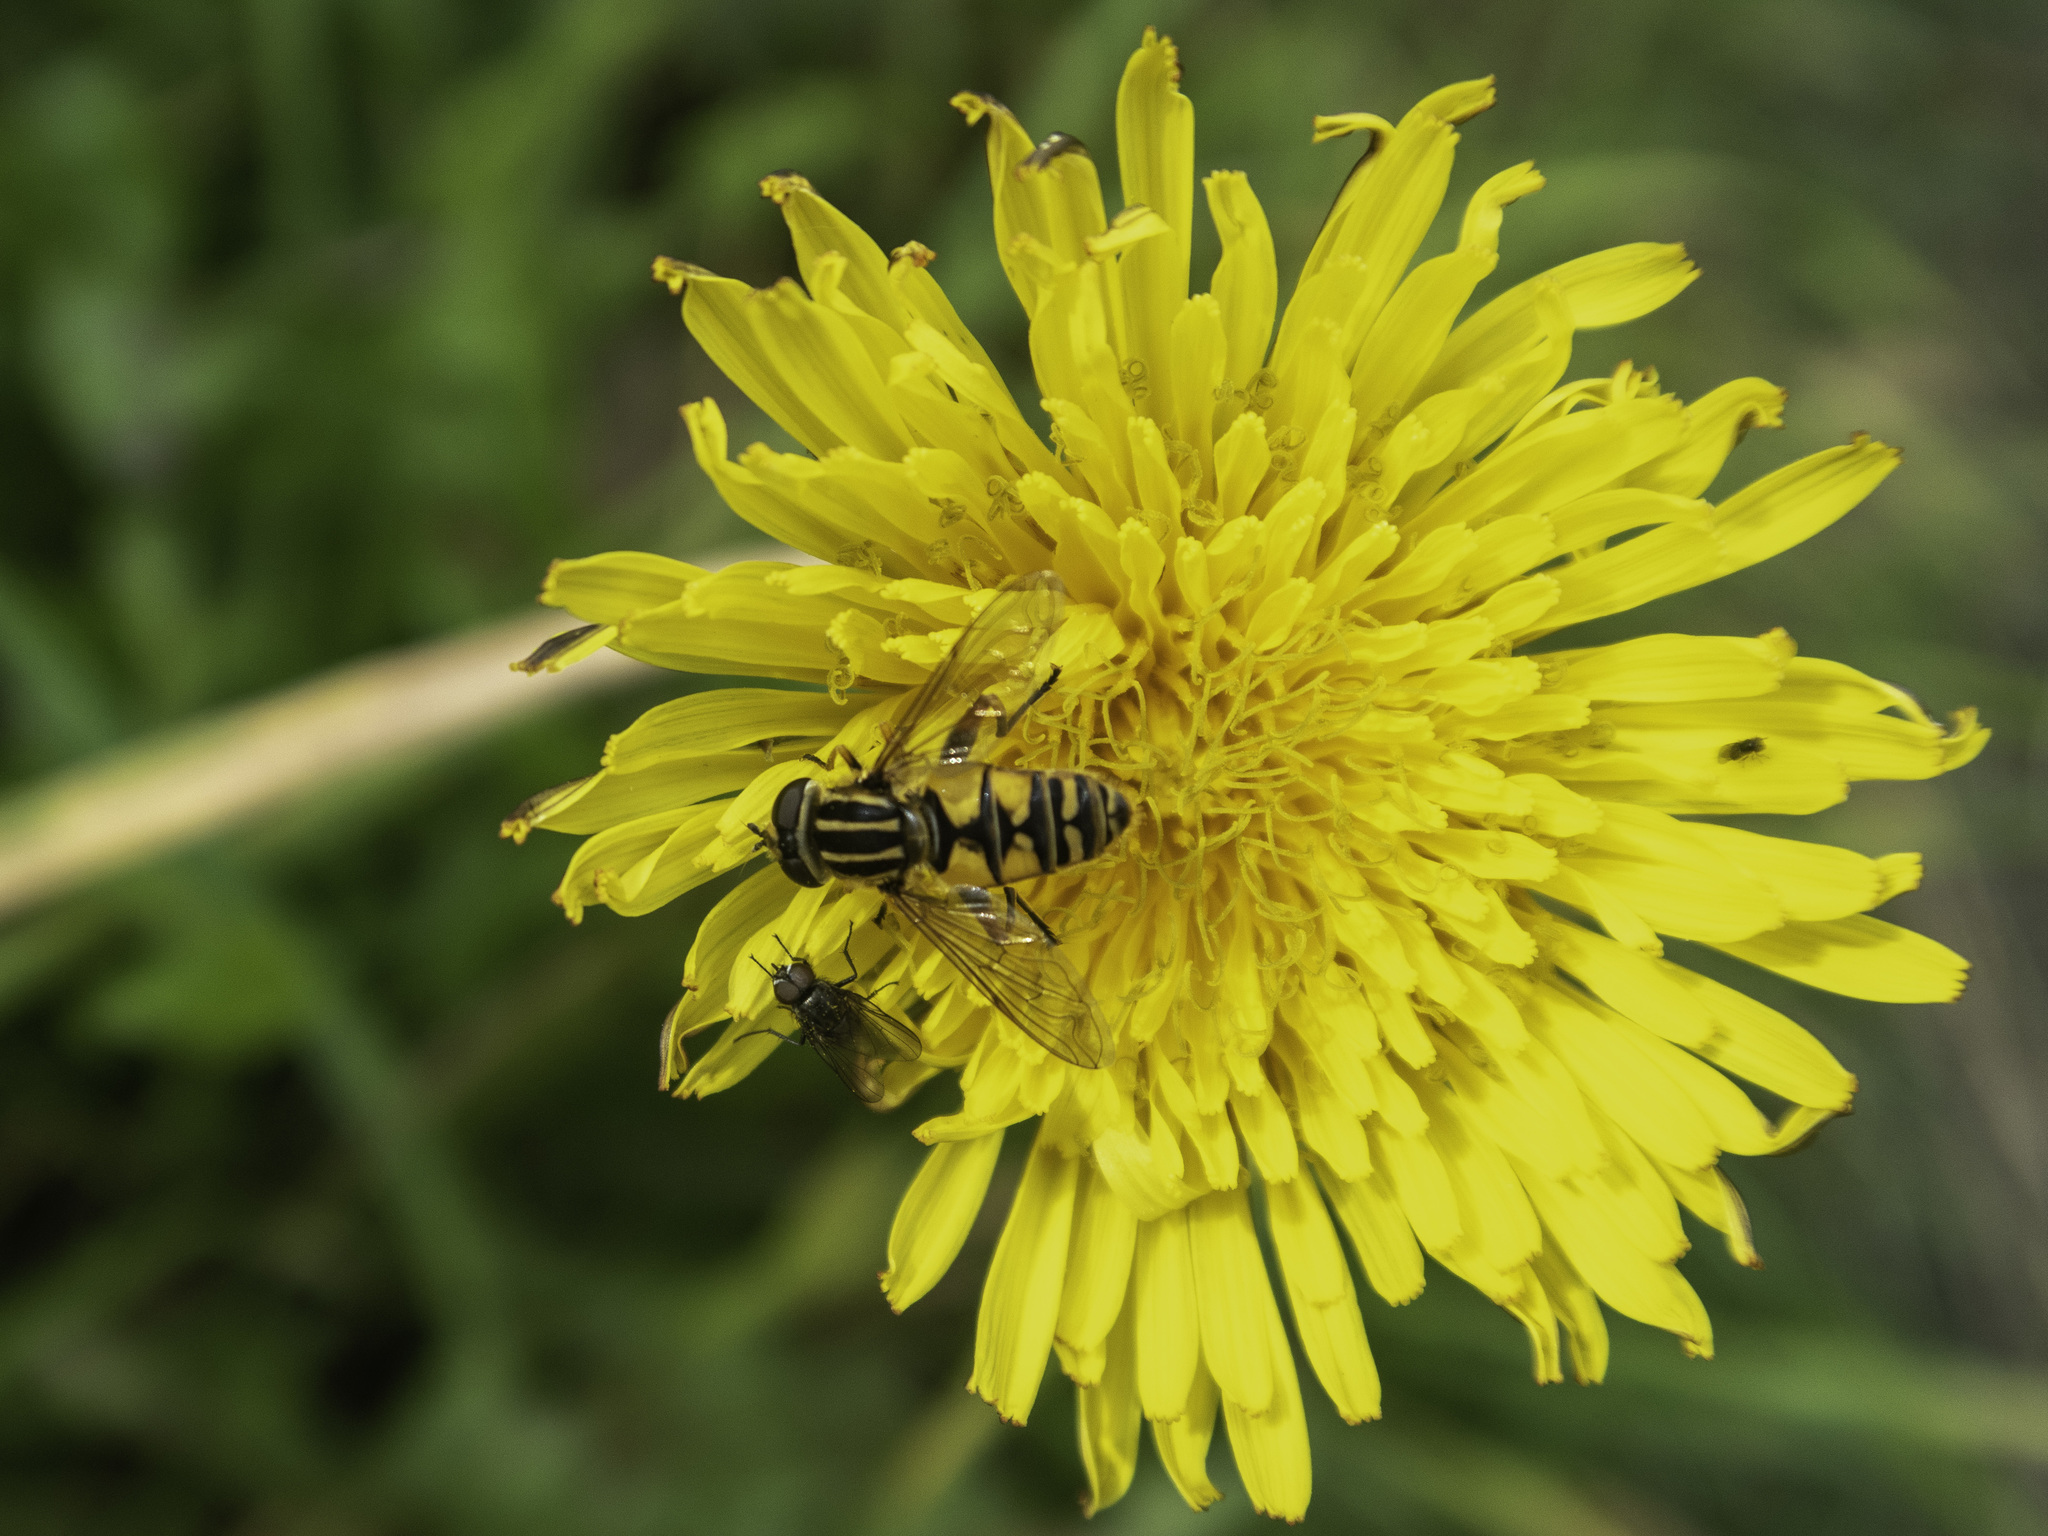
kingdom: Animalia
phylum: Arthropoda
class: Insecta
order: Diptera
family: Syrphidae
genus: Helophilus
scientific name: Helophilus pendulus
